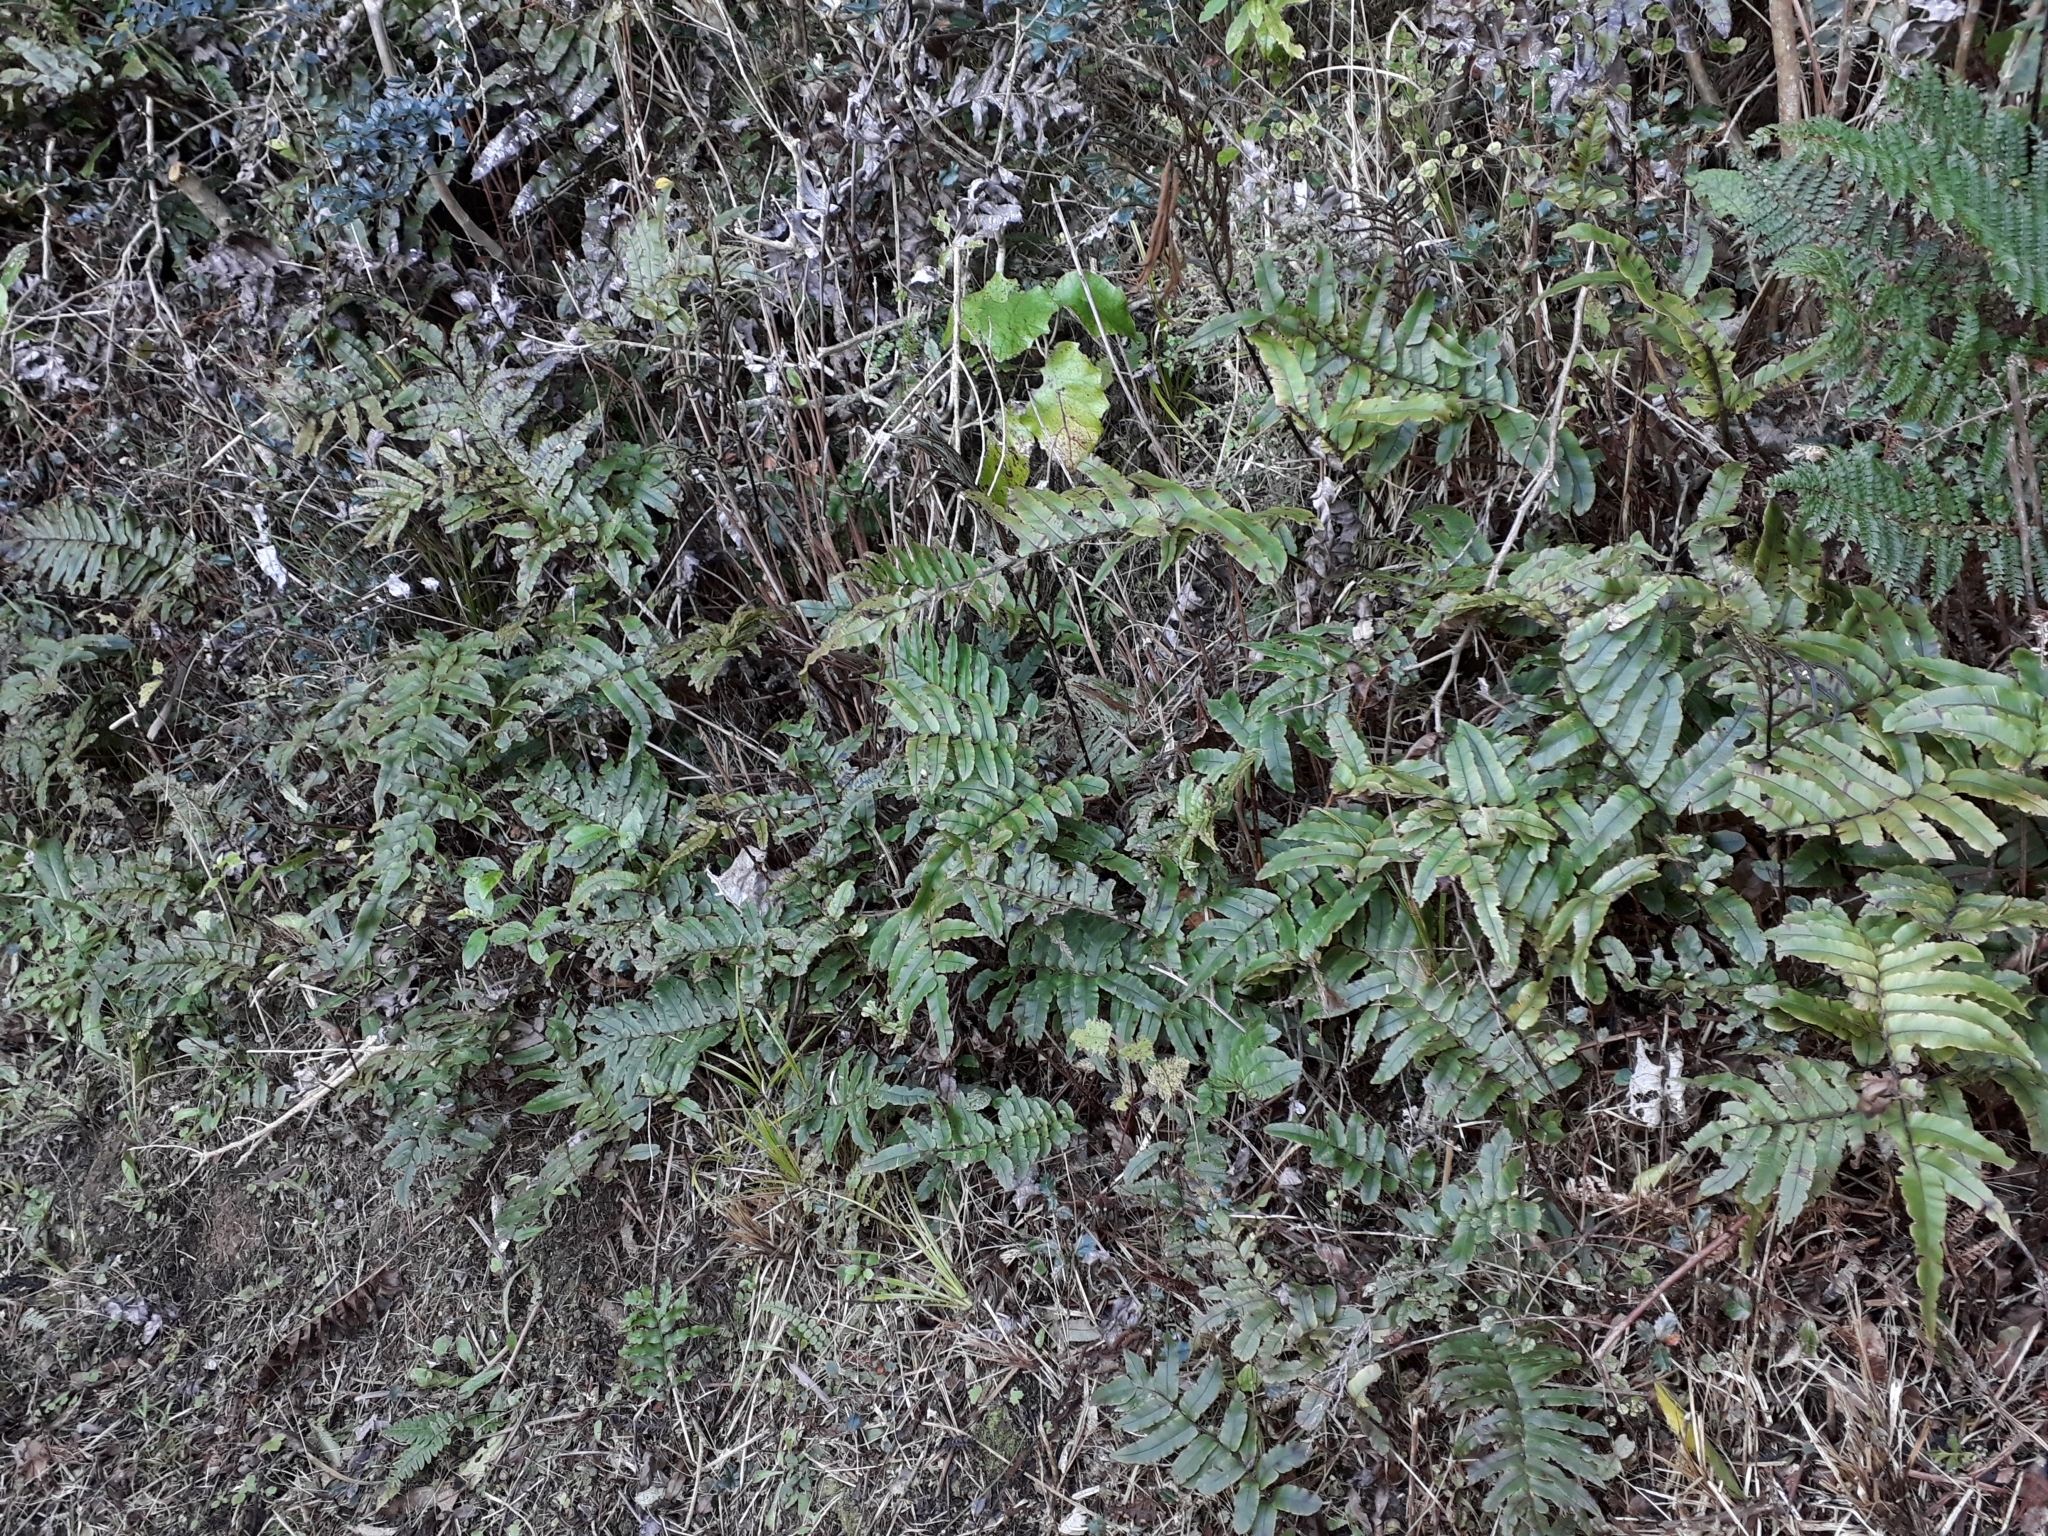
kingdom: Plantae
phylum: Tracheophyta
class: Polypodiopsida
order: Polypodiales
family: Blechnaceae
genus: Parablechnum
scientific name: Parablechnum procerum
